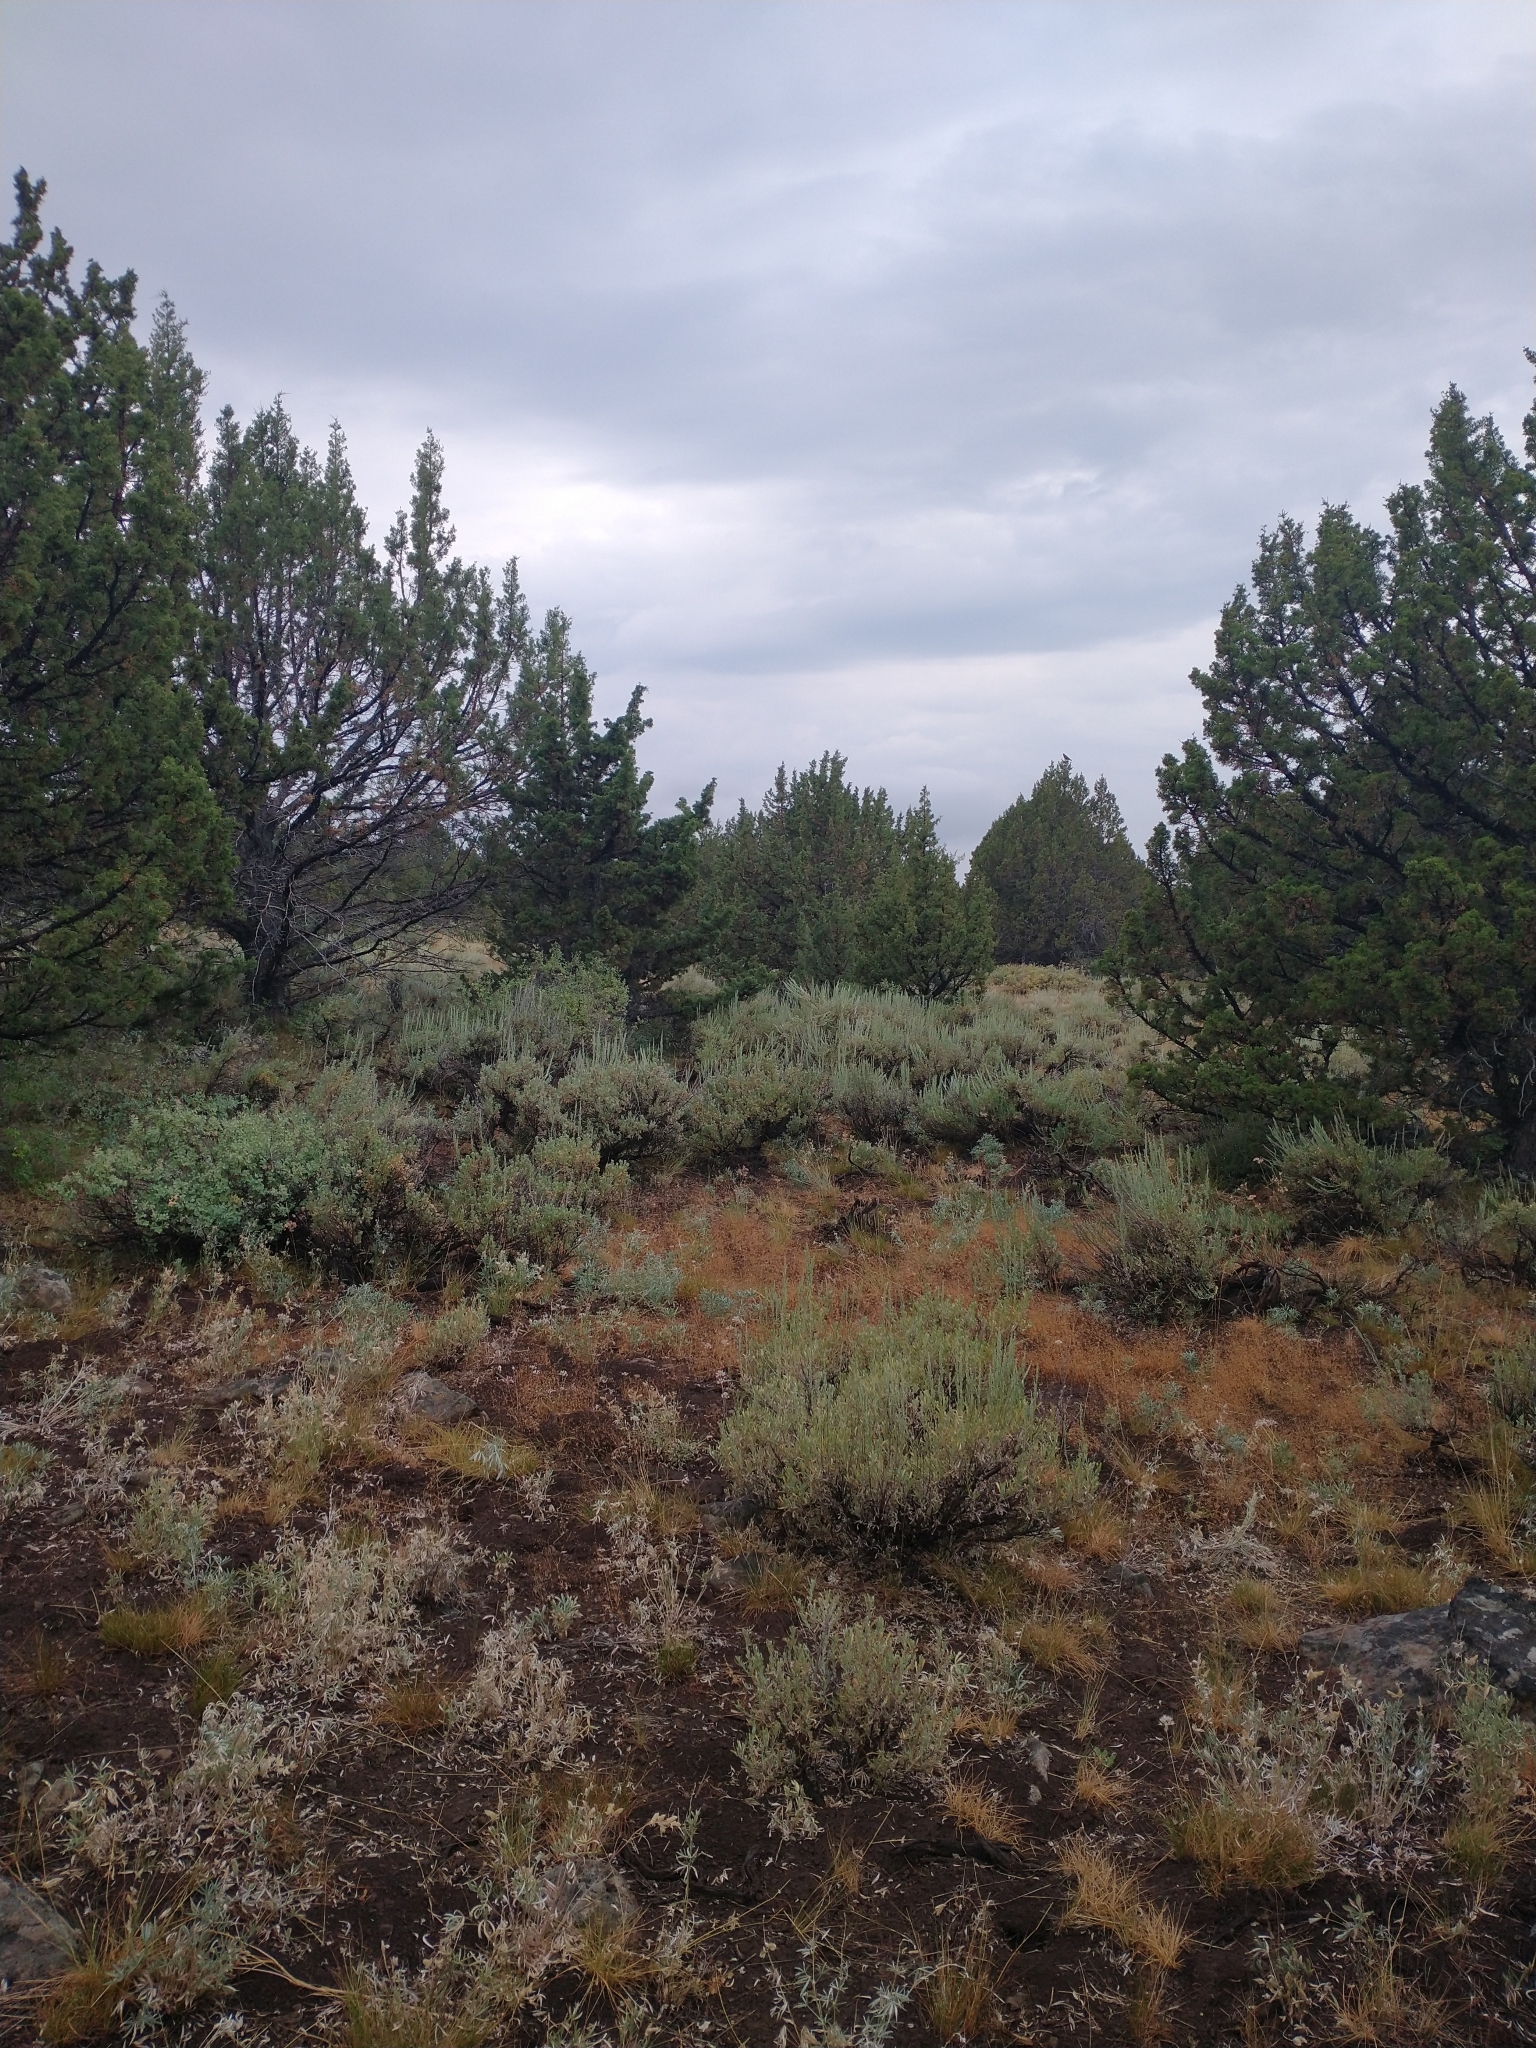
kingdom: Plantae
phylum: Tracheophyta
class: Pinopsida
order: Pinales
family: Cupressaceae
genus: Juniperus
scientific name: Juniperus occidentalis
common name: Western juniper
